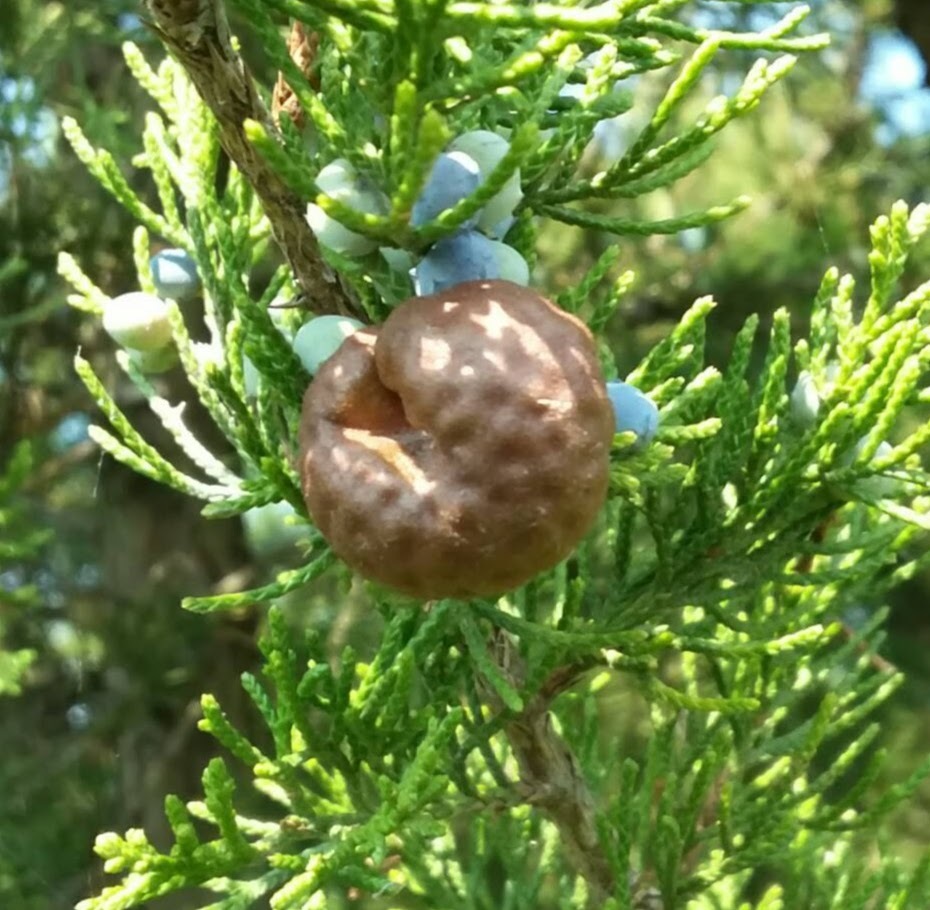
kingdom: Fungi
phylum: Basidiomycota
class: Pucciniomycetes
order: Pucciniales
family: Gymnosporangiaceae
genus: Gymnosporangium
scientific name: Gymnosporangium juniperi-virginianae
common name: Juniper-apple rust
